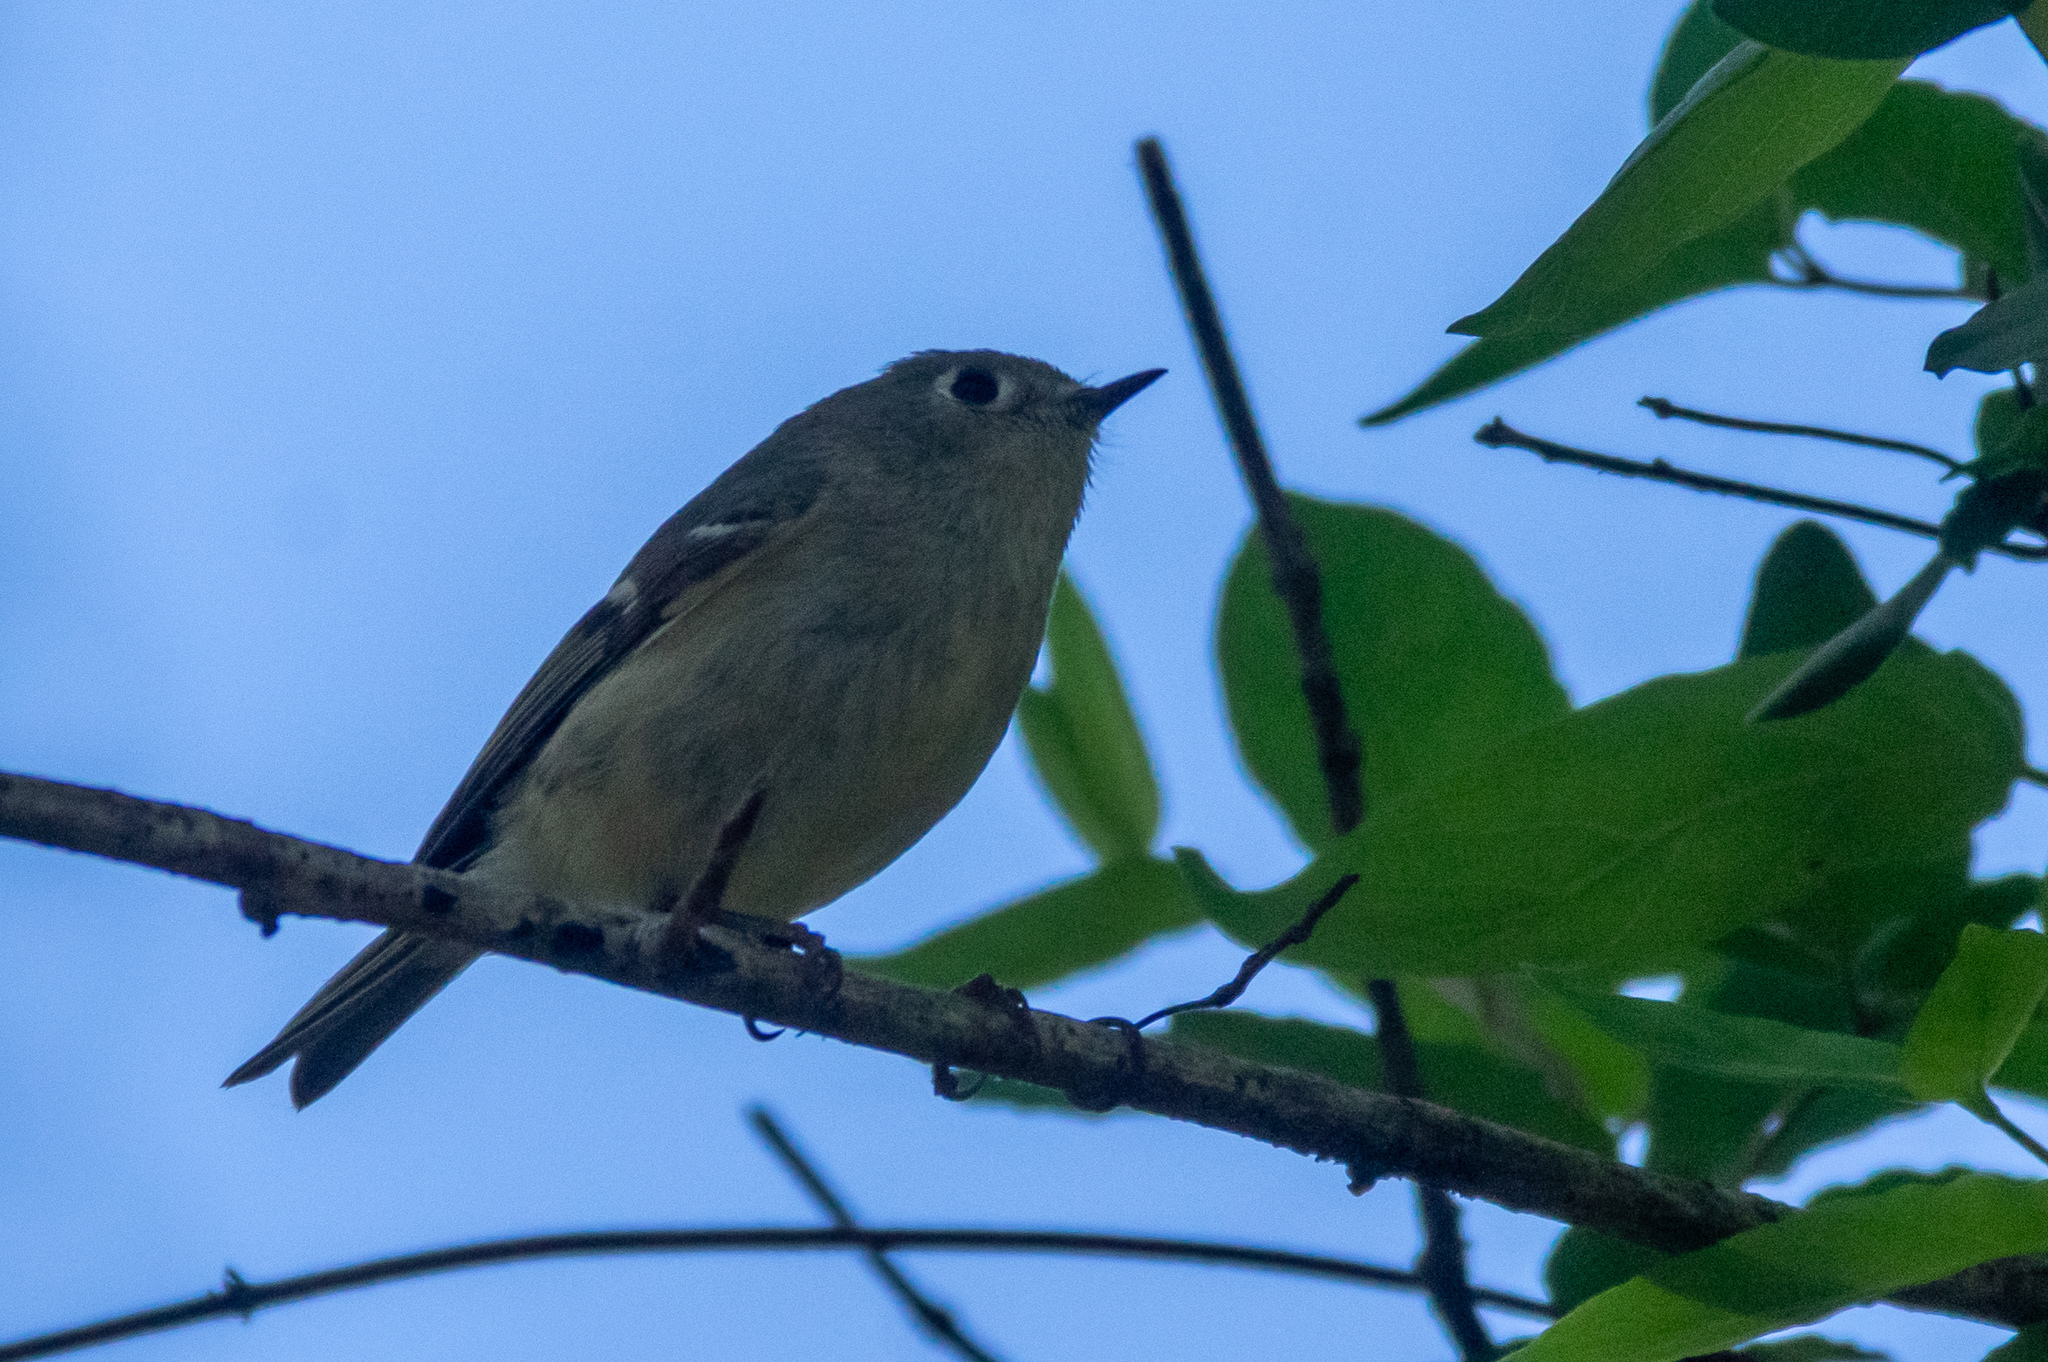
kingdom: Animalia
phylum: Chordata
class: Aves
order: Passeriformes
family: Regulidae
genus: Regulus
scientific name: Regulus calendula
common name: Ruby-crowned kinglet
